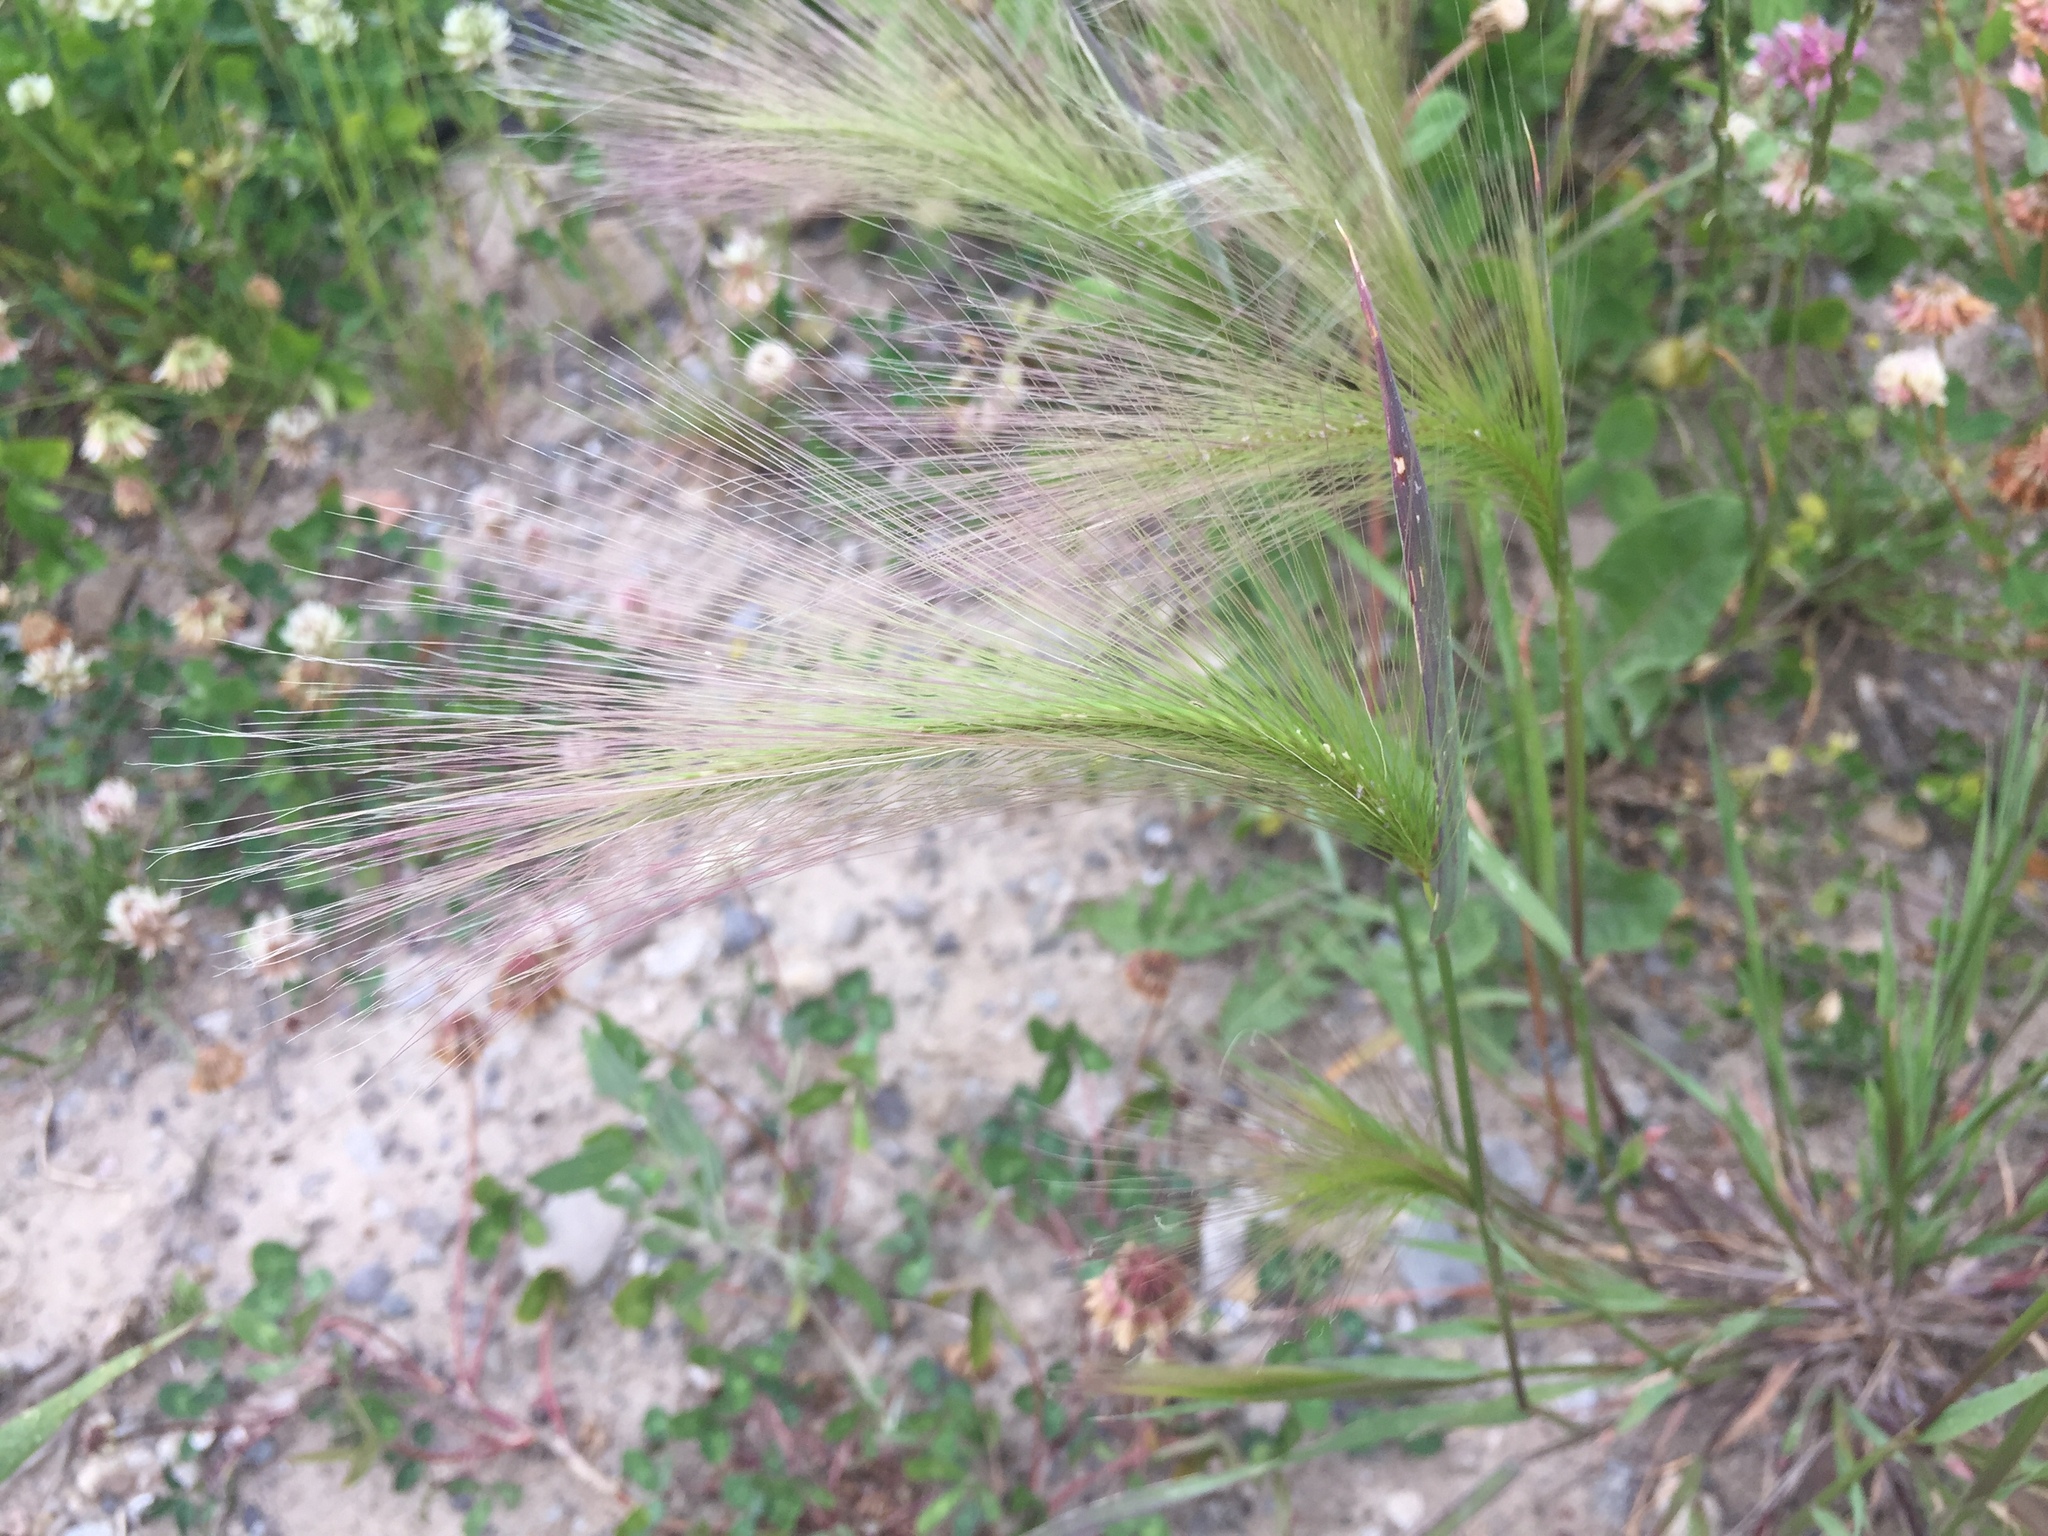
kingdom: Plantae
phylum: Tracheophyta
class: Liliopsida
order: Poales
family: Poaceae
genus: Hordeum
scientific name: Hordeum jubatum
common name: Foxtail barley
